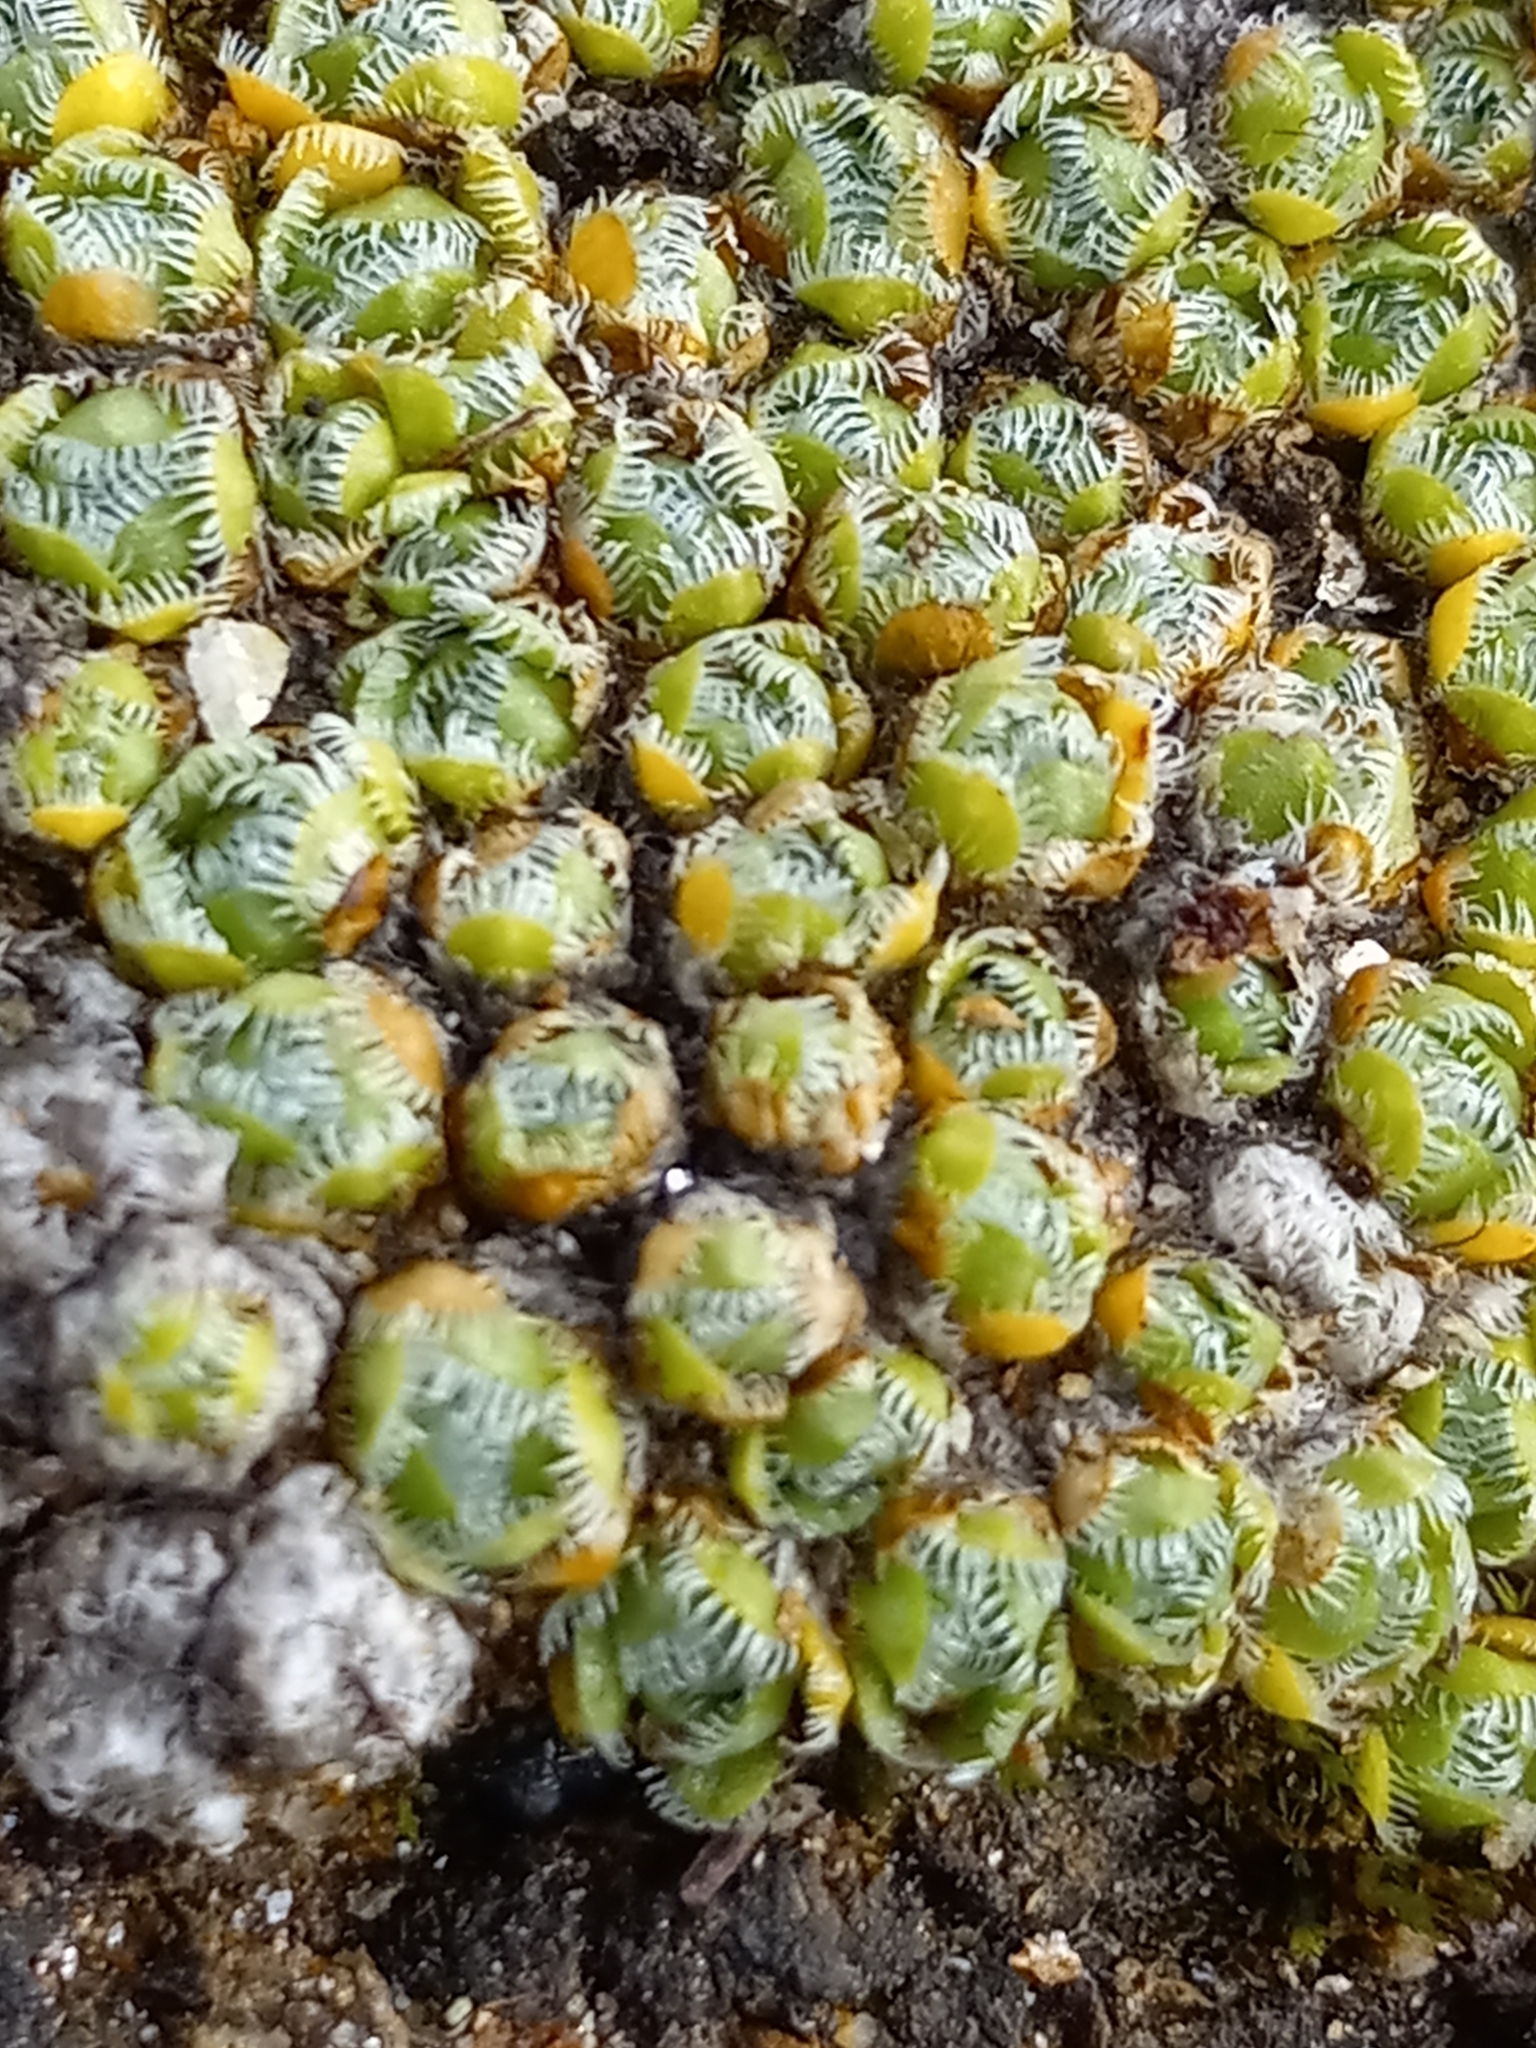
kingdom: Plantae
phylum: Tracheophyta
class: Magnoliopsida
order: Saxifragales
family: Saxifragaceae
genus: Saxifraga
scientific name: Saxifraga eschscholtzii
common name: Eschscholtz's saxifrage
